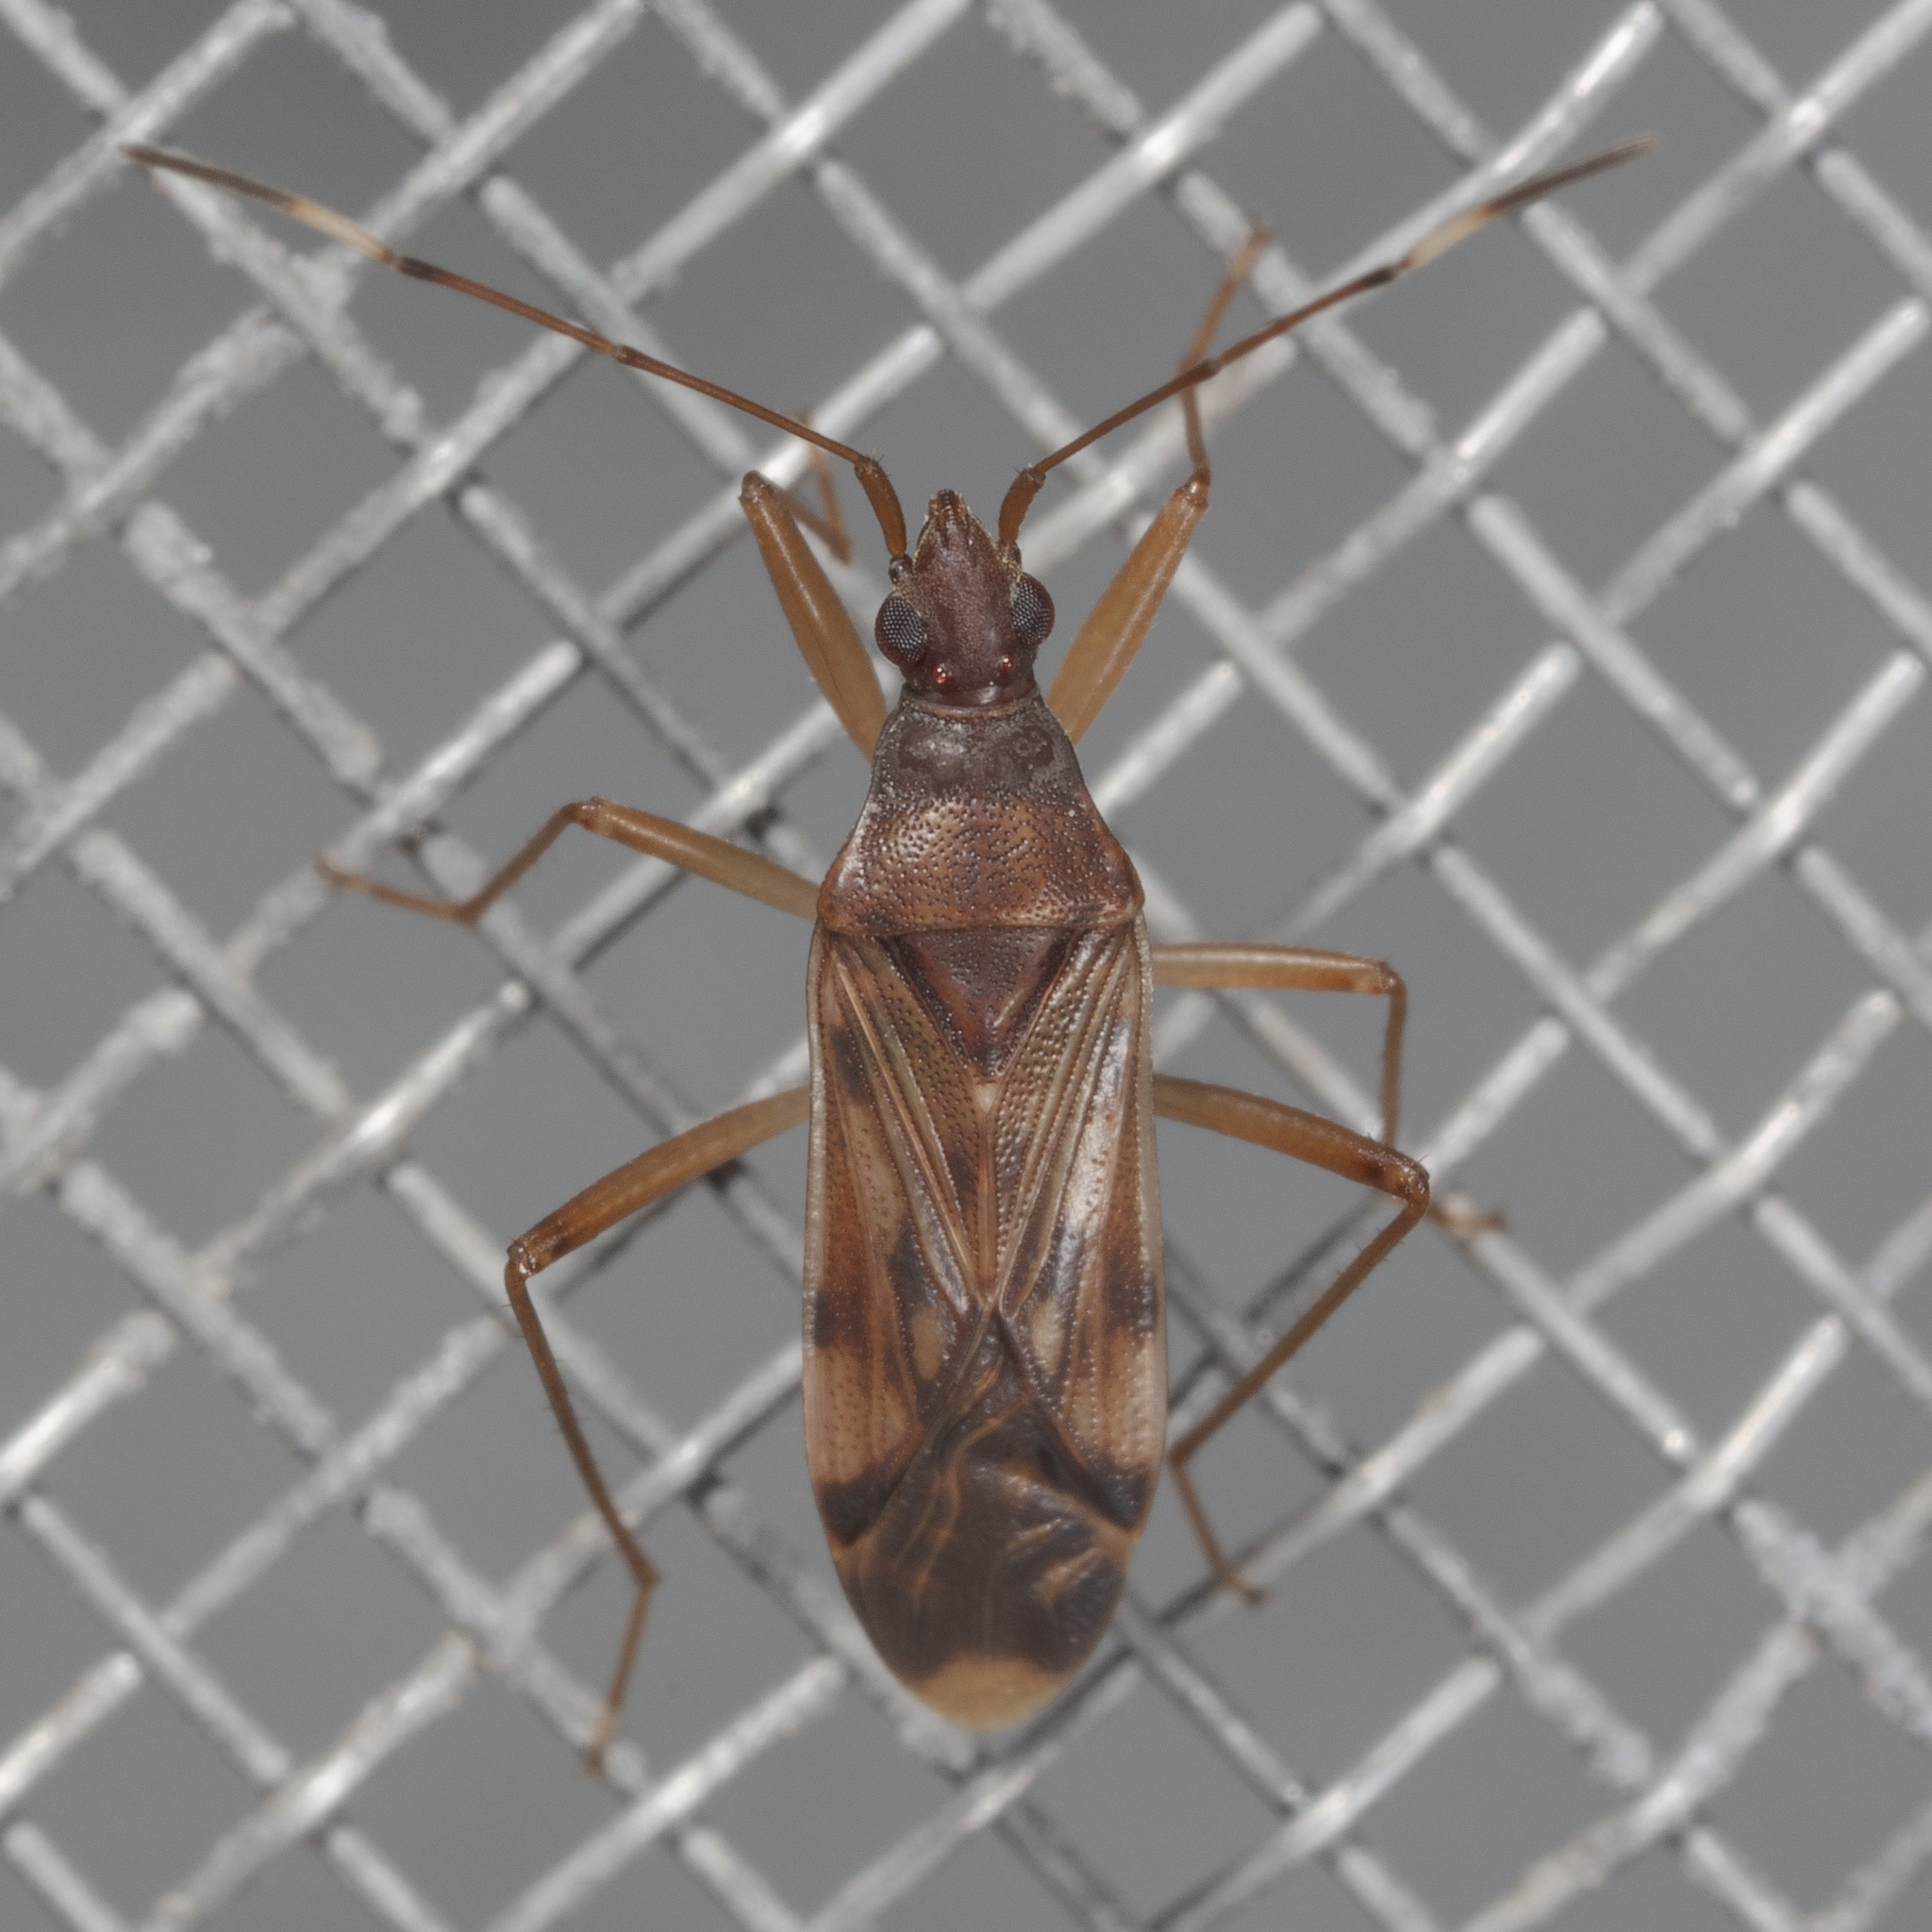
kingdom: Animalia
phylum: Arthropoda
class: Insecta
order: Hemiptera
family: Rhyparochromidae
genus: Ozophora
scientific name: Ozophora depicturata
